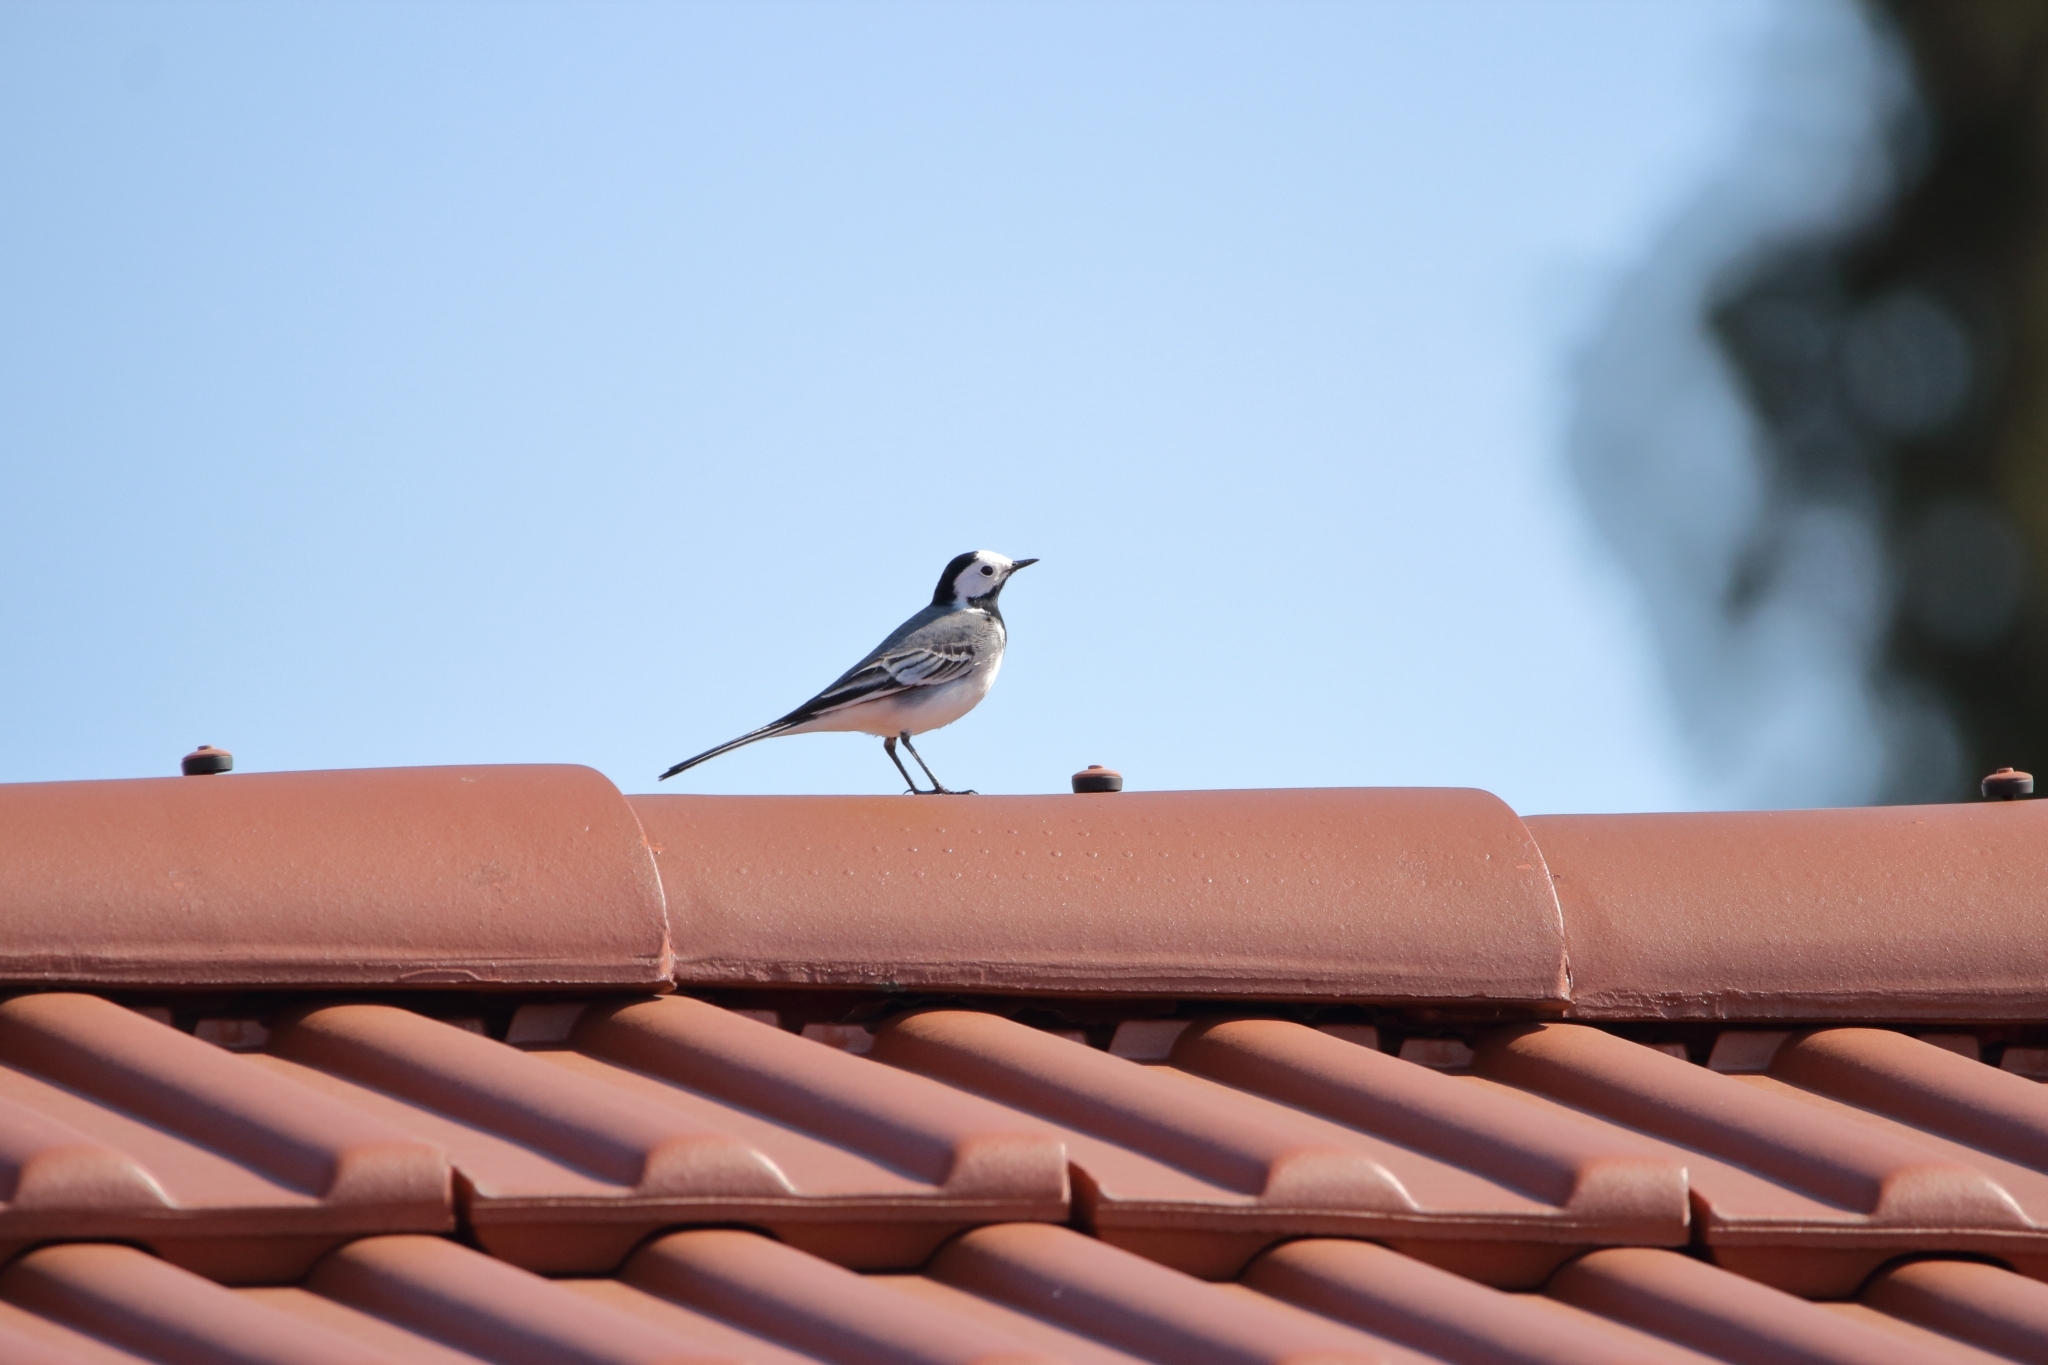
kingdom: Animalia
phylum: Chordata
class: Aves
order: Passeriformes
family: Motacillidae
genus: Motacilla
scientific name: Motacilla alba
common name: White wagtail
